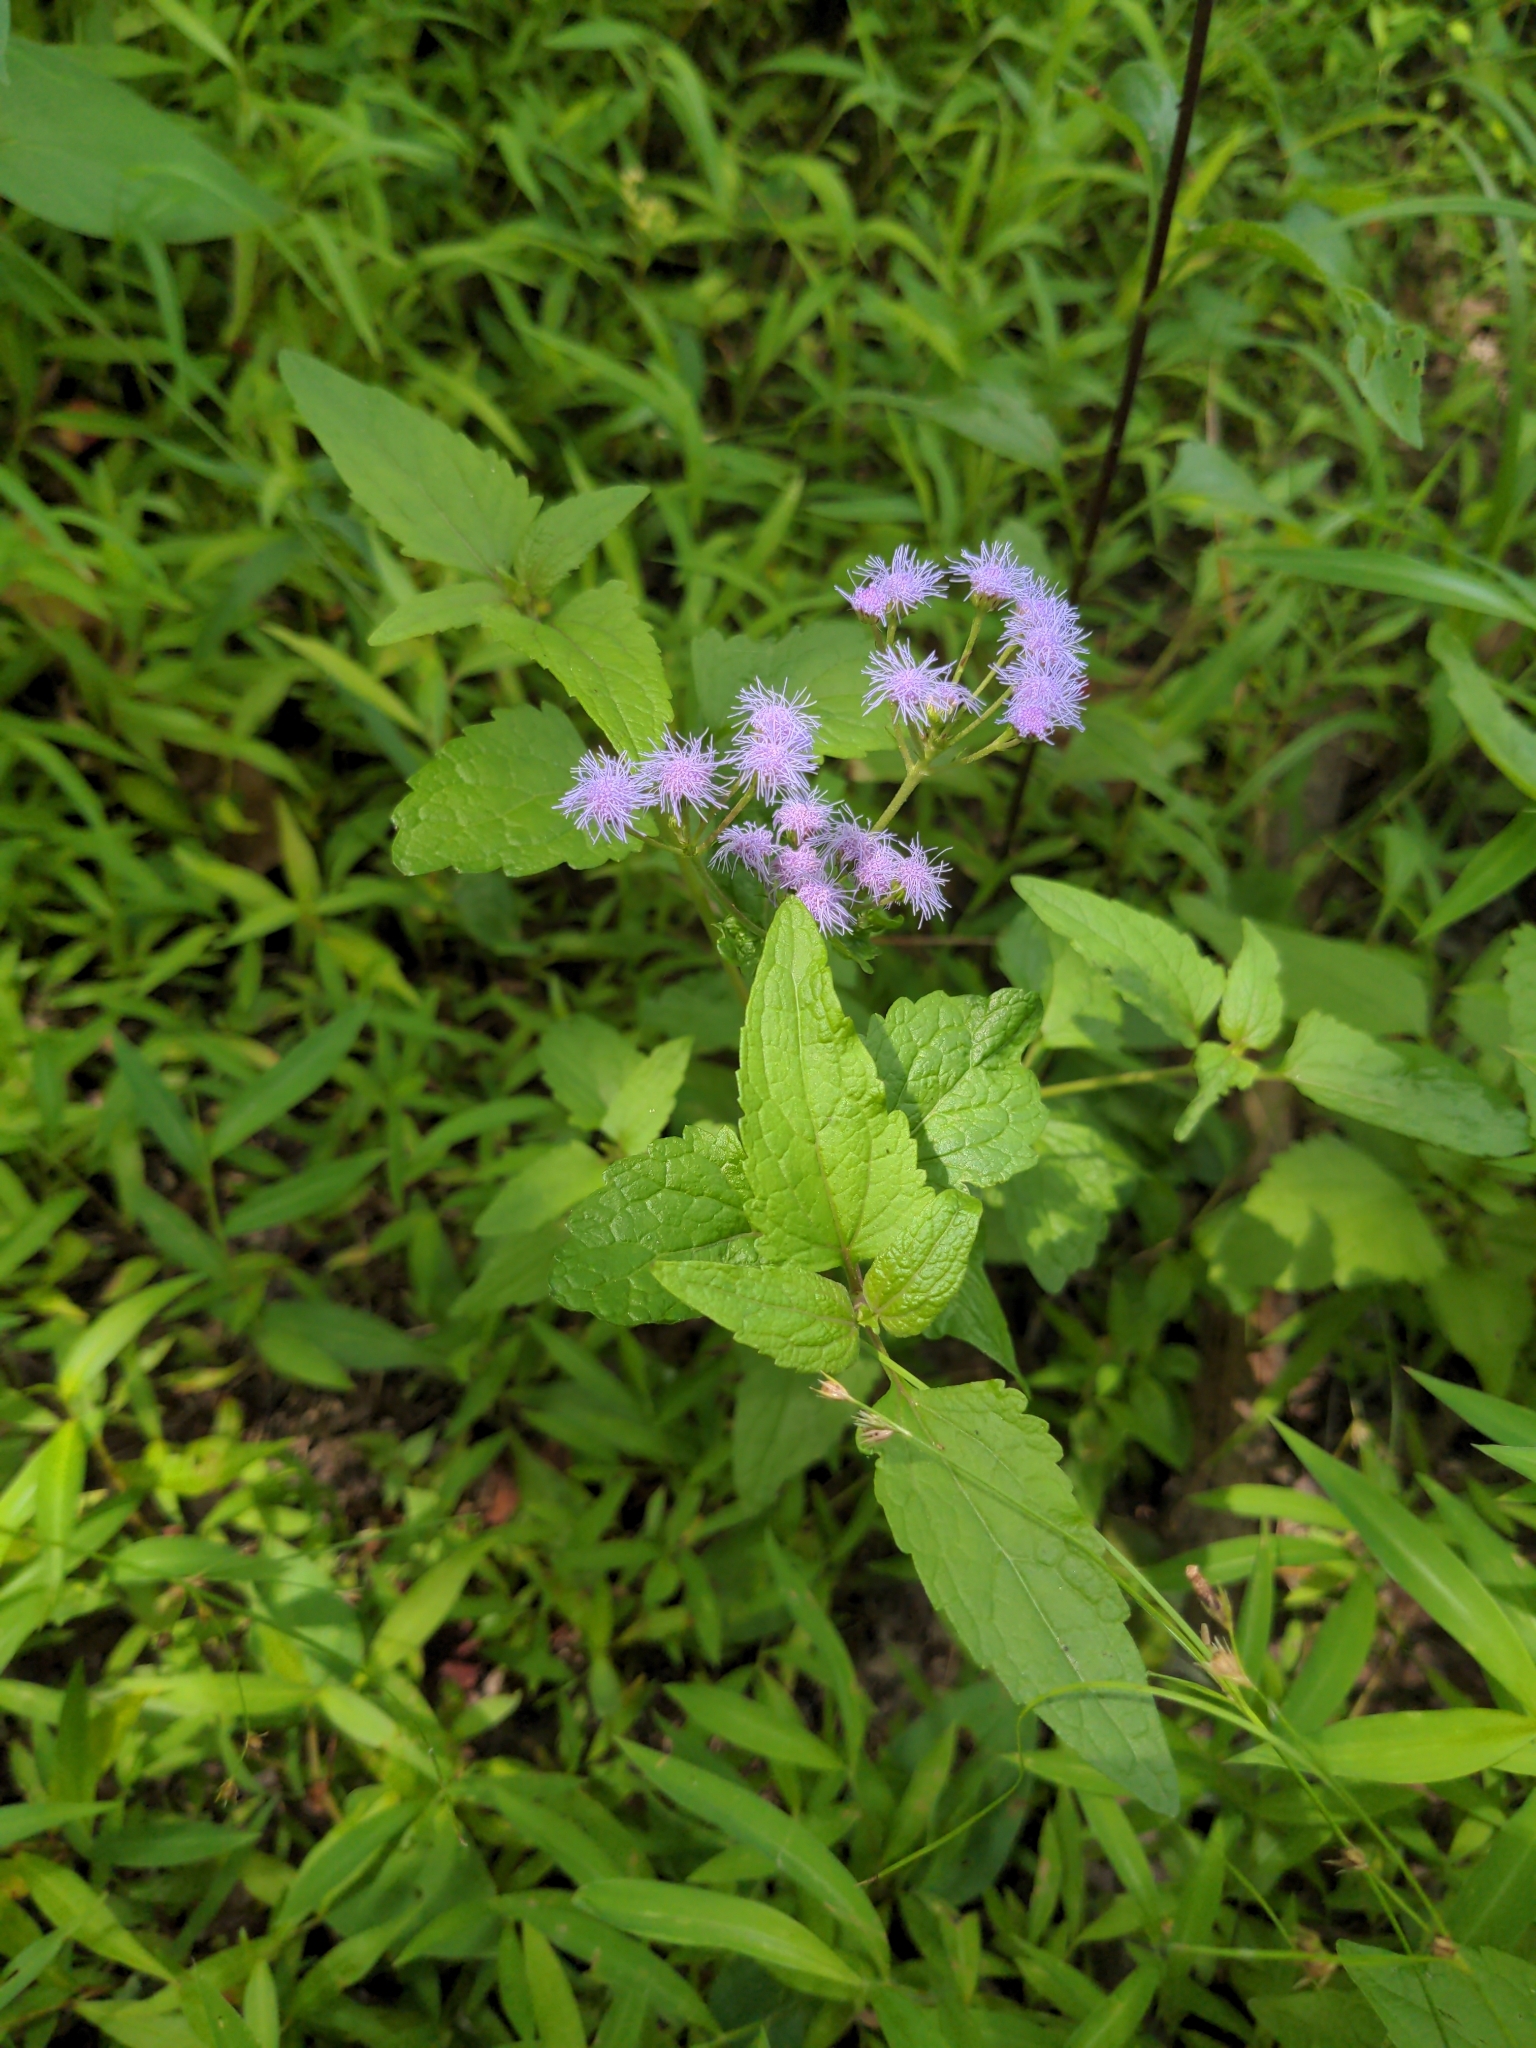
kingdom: Plantae
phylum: Tracheophyta
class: Magnoliopsida
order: Asterales
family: Asteraceae
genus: Conoclinium
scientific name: Conoclinium coelestinum
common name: Blue mistflower
